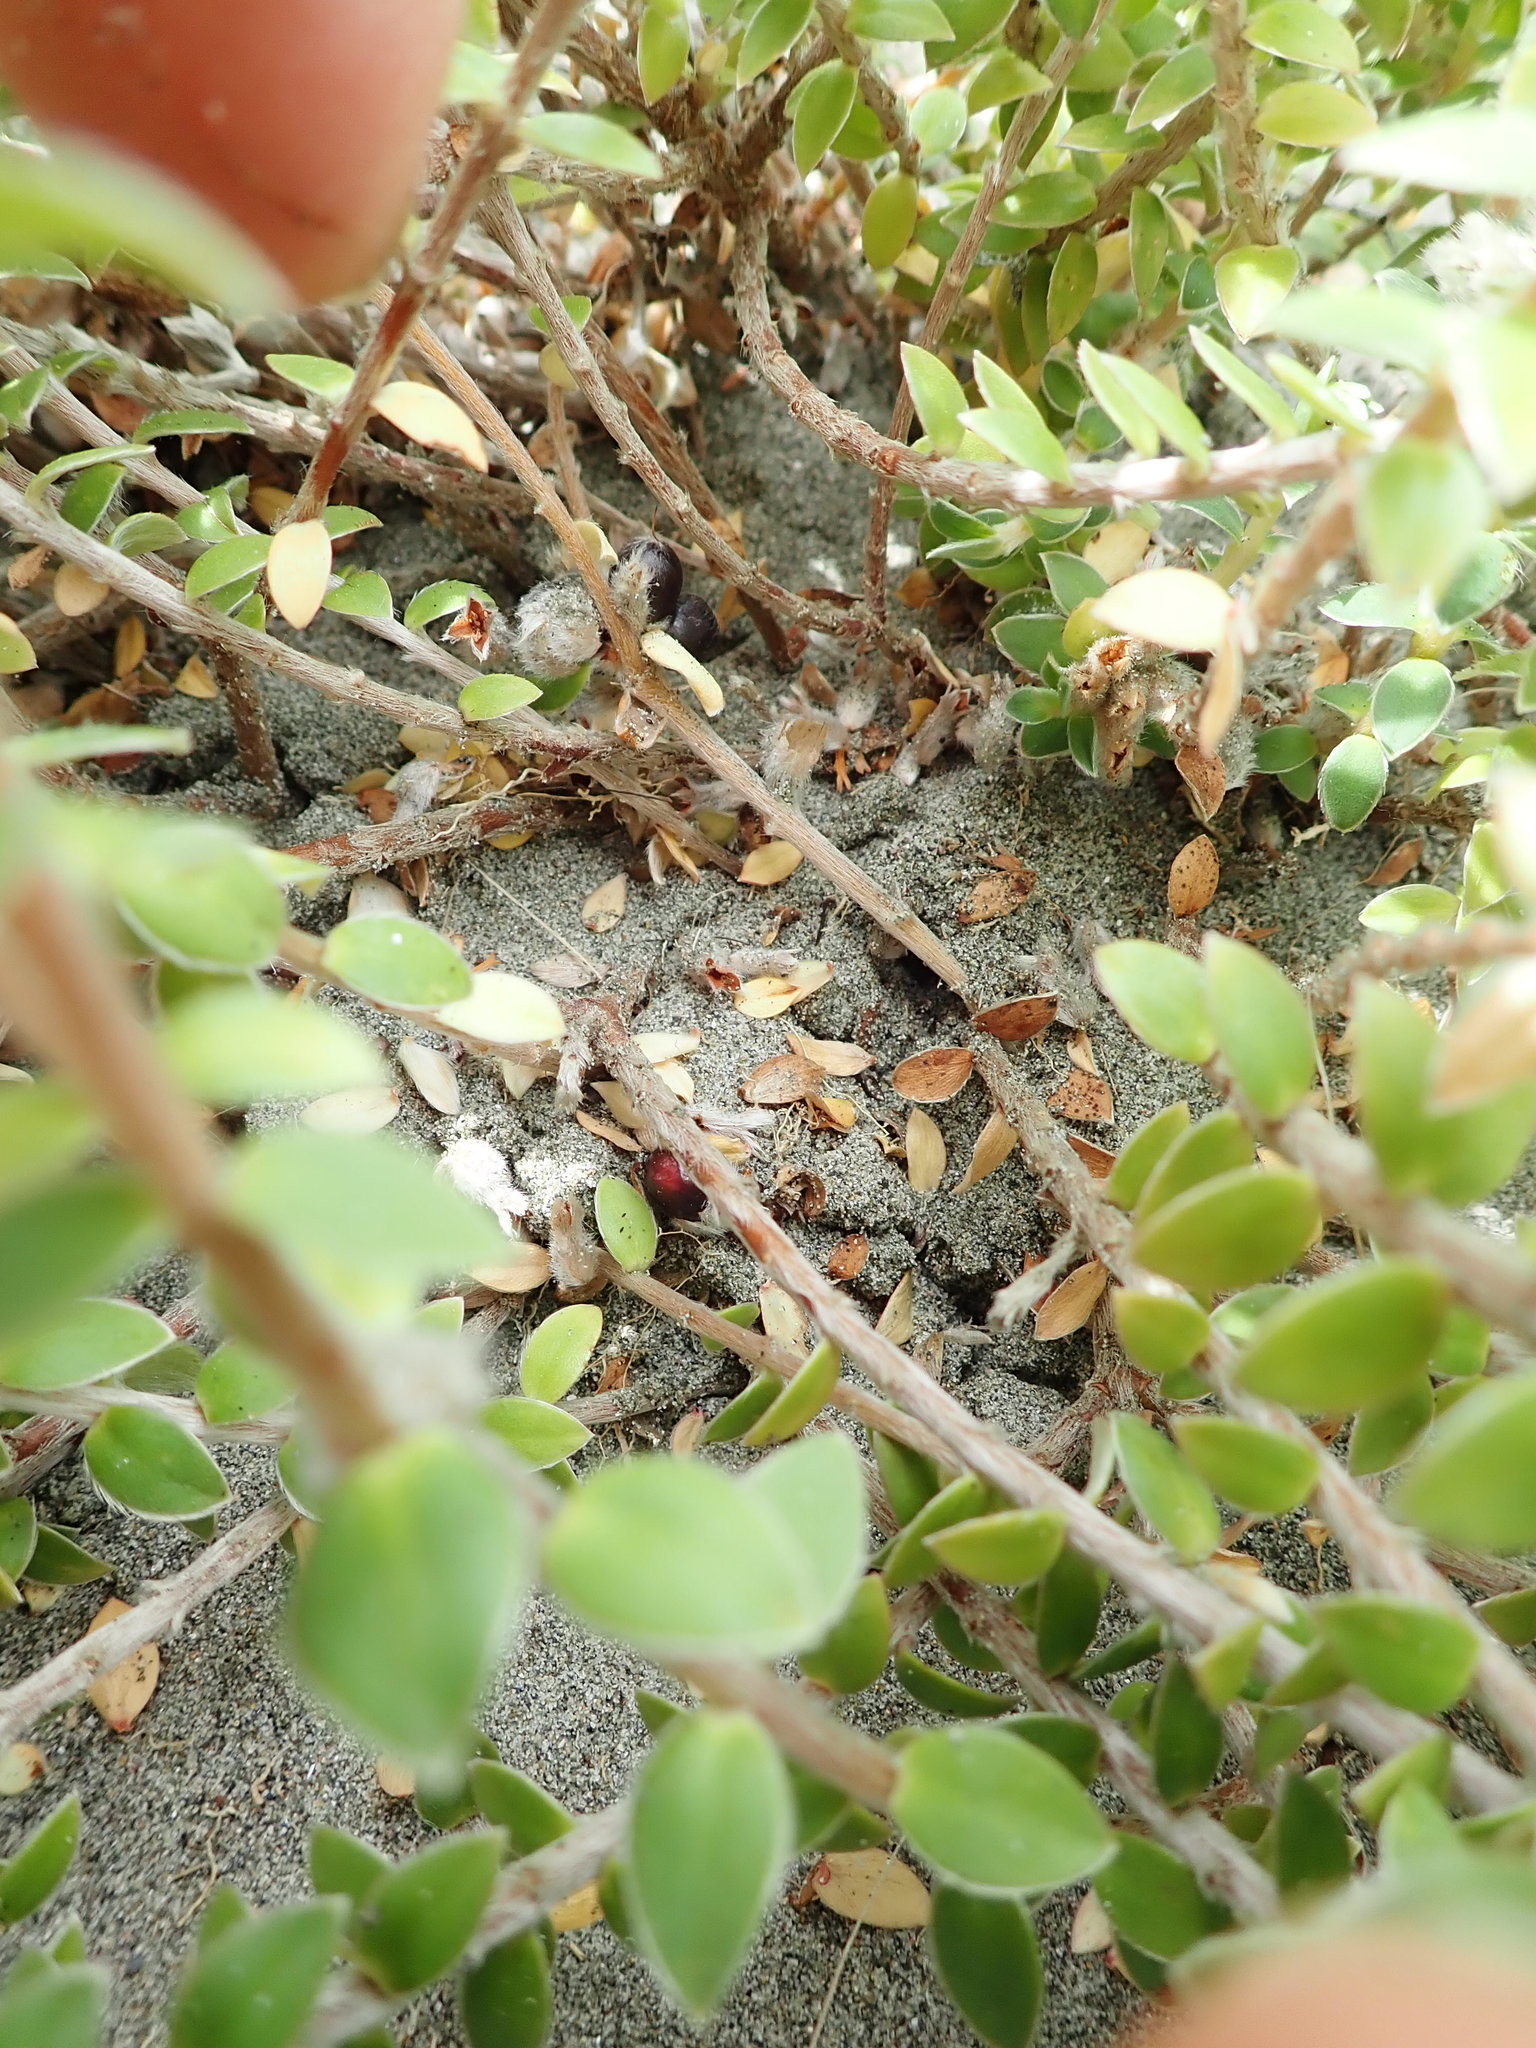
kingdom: Plantae
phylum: Tracheophyta
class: Magnoliopsida
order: Malvales
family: Thymelaeaceae
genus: Pimelea
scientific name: Pimelea villosa
